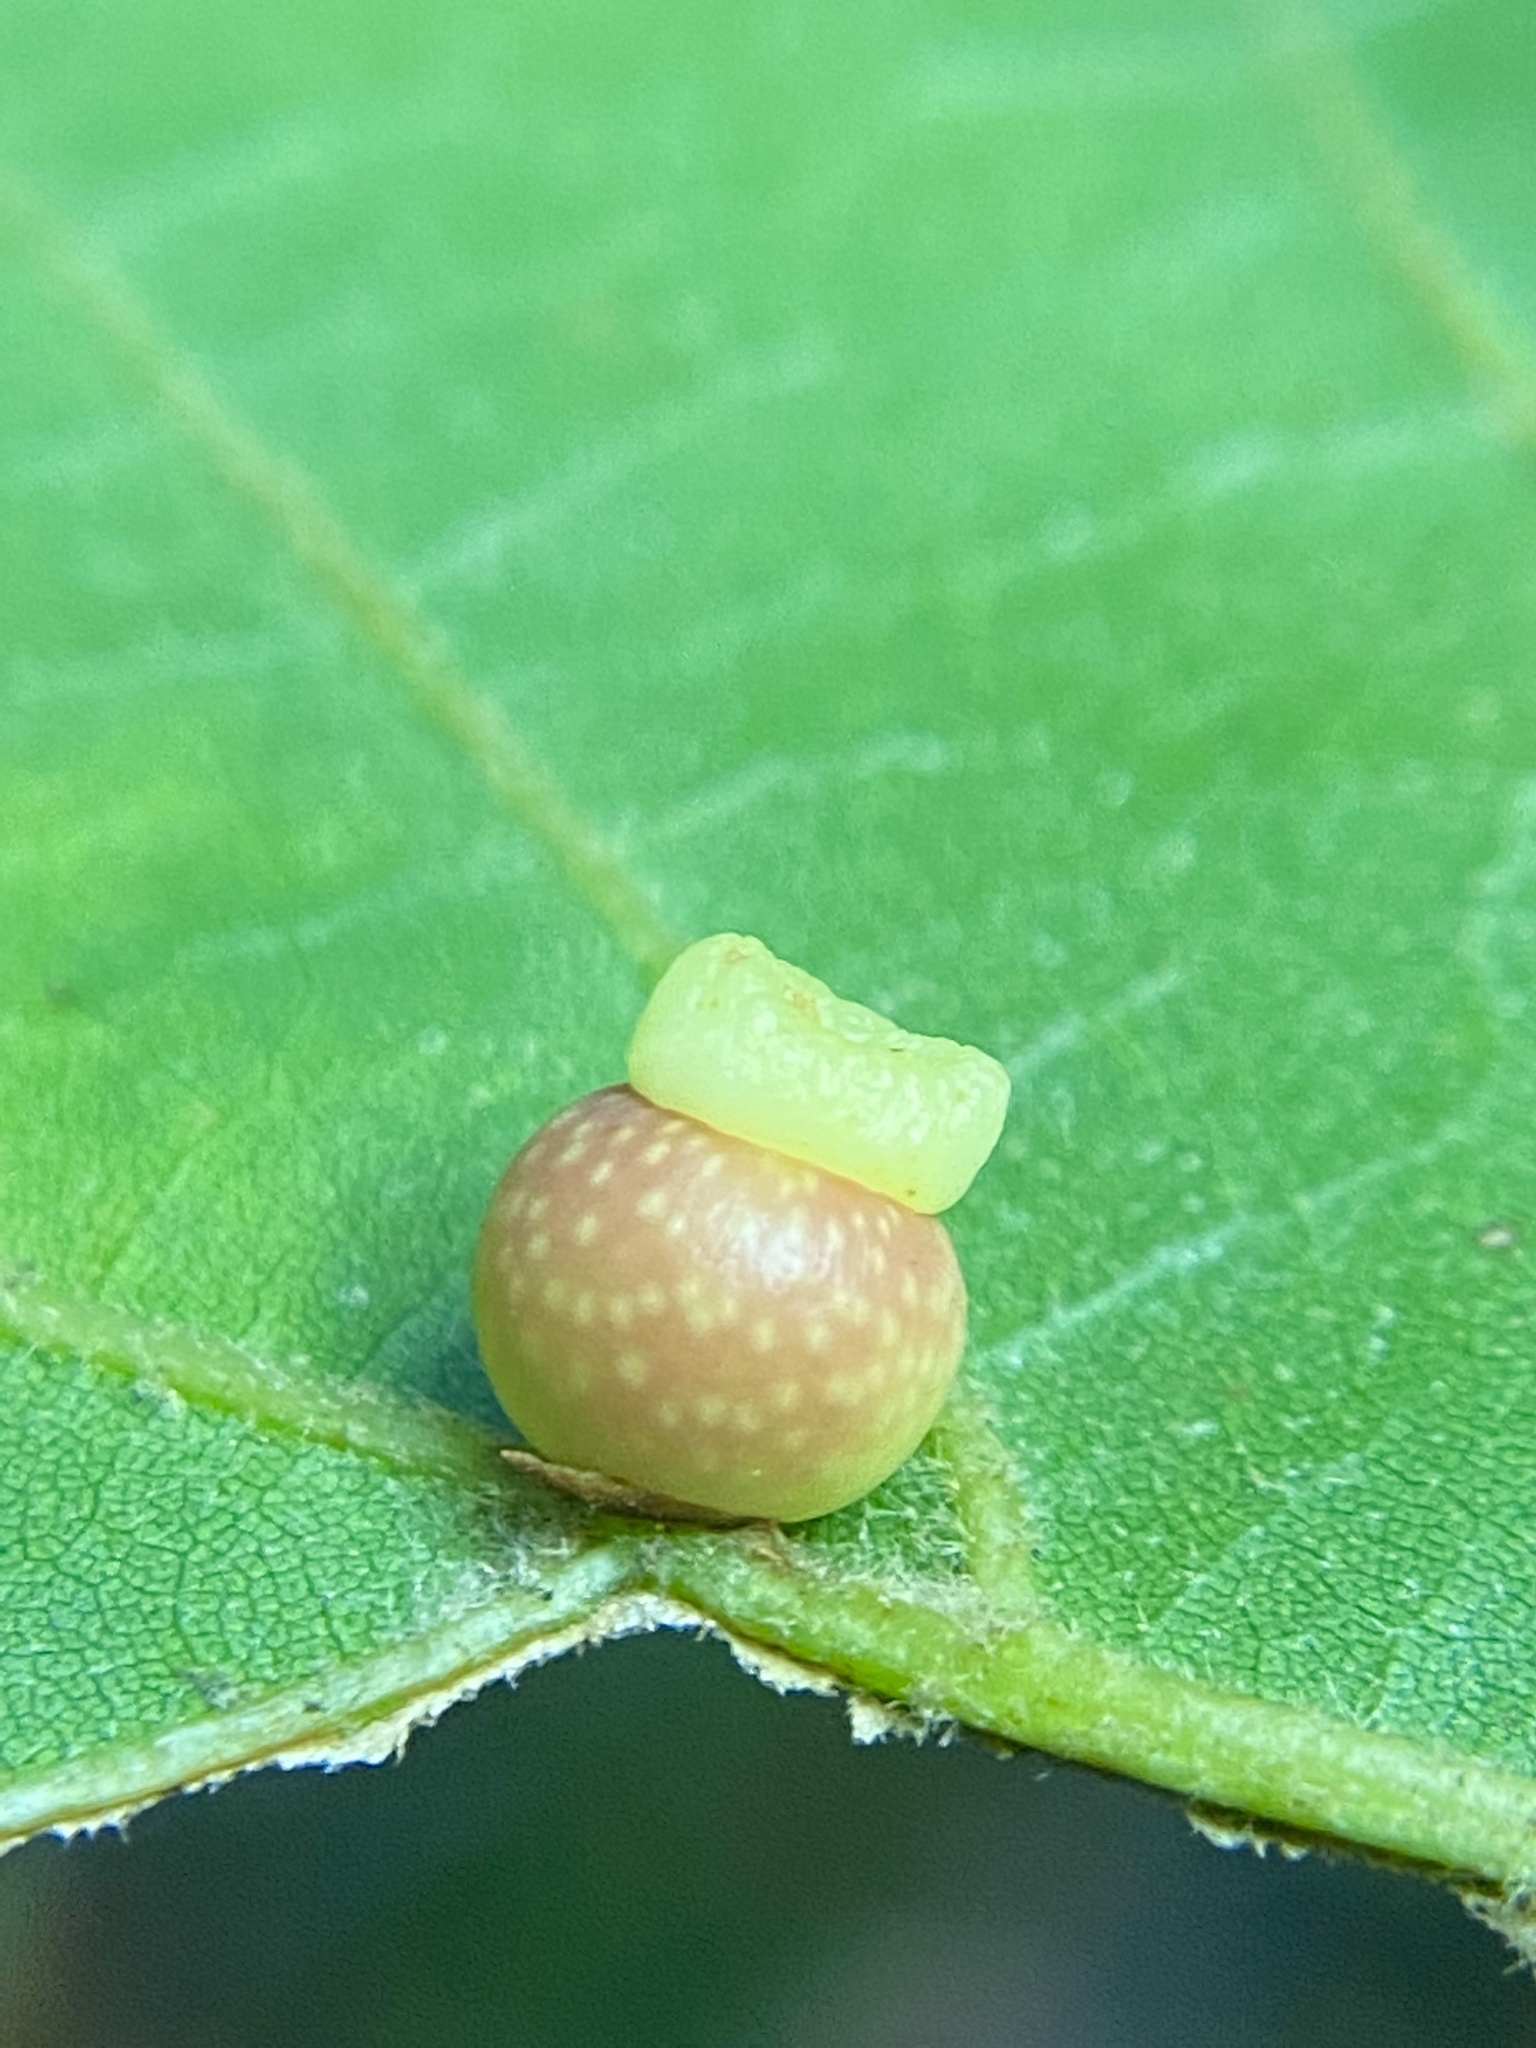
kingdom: Animalia
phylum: Arthropoda
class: Insecta
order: Hymenoptera
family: Cynipidae
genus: Kokkocynips
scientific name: Kokkocynips rileyi
